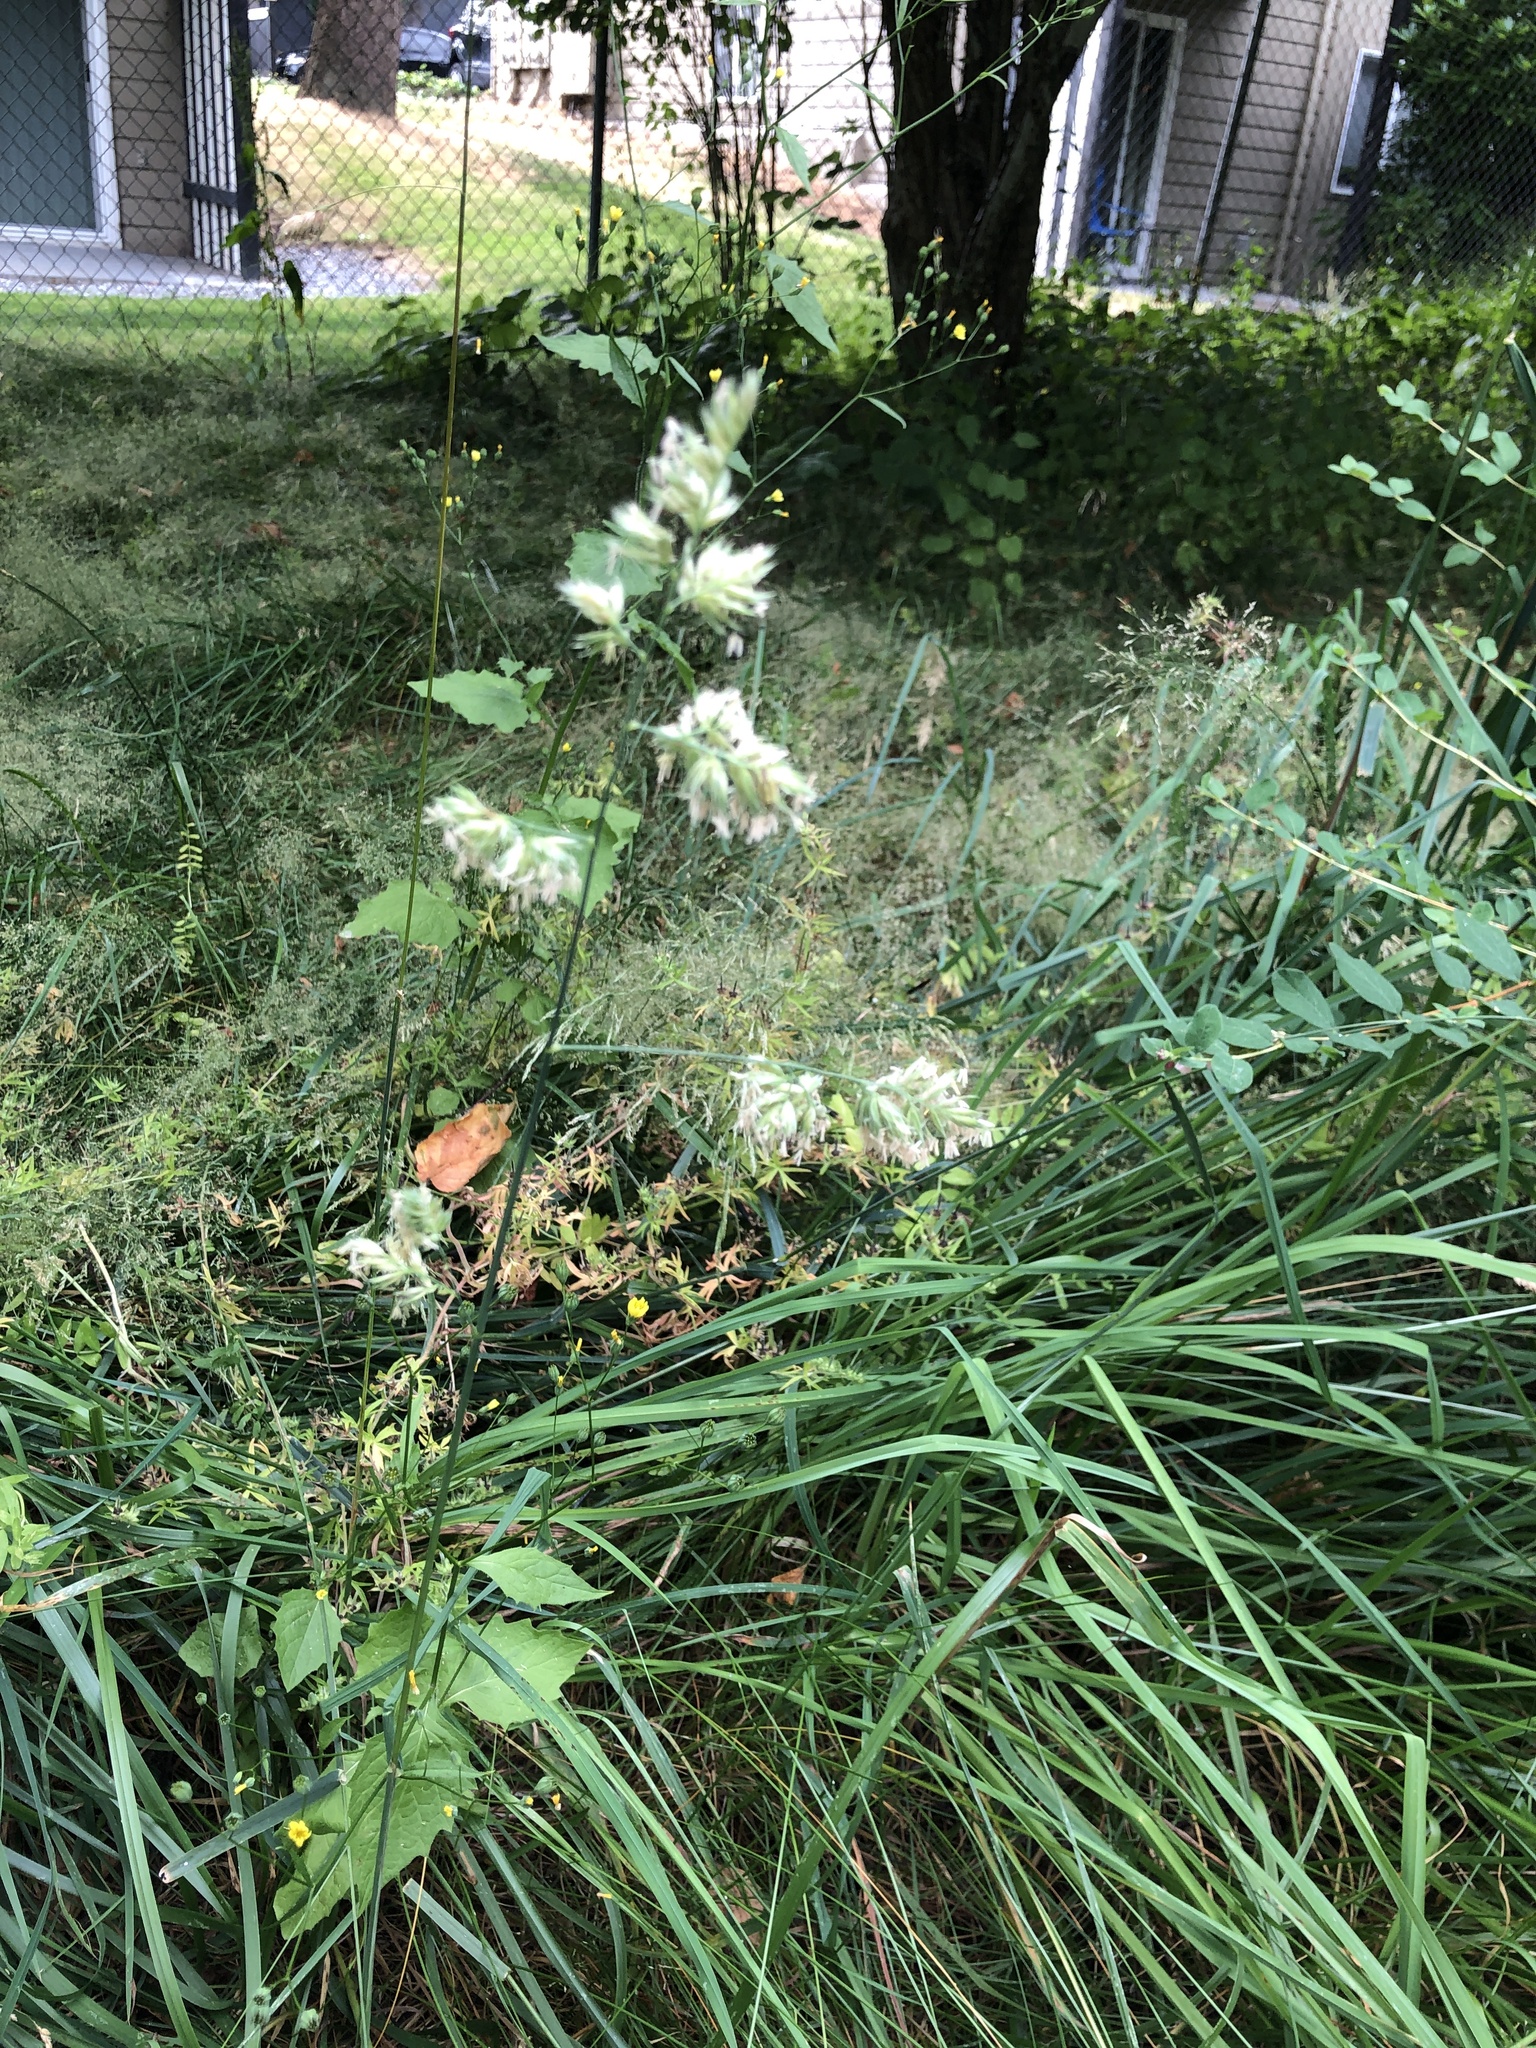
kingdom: Plantae
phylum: Tracheophyta
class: Liliopsida
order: Poales
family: Poaceae
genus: Dactylis
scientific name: Dactylis glomerata
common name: Orchardgrass
